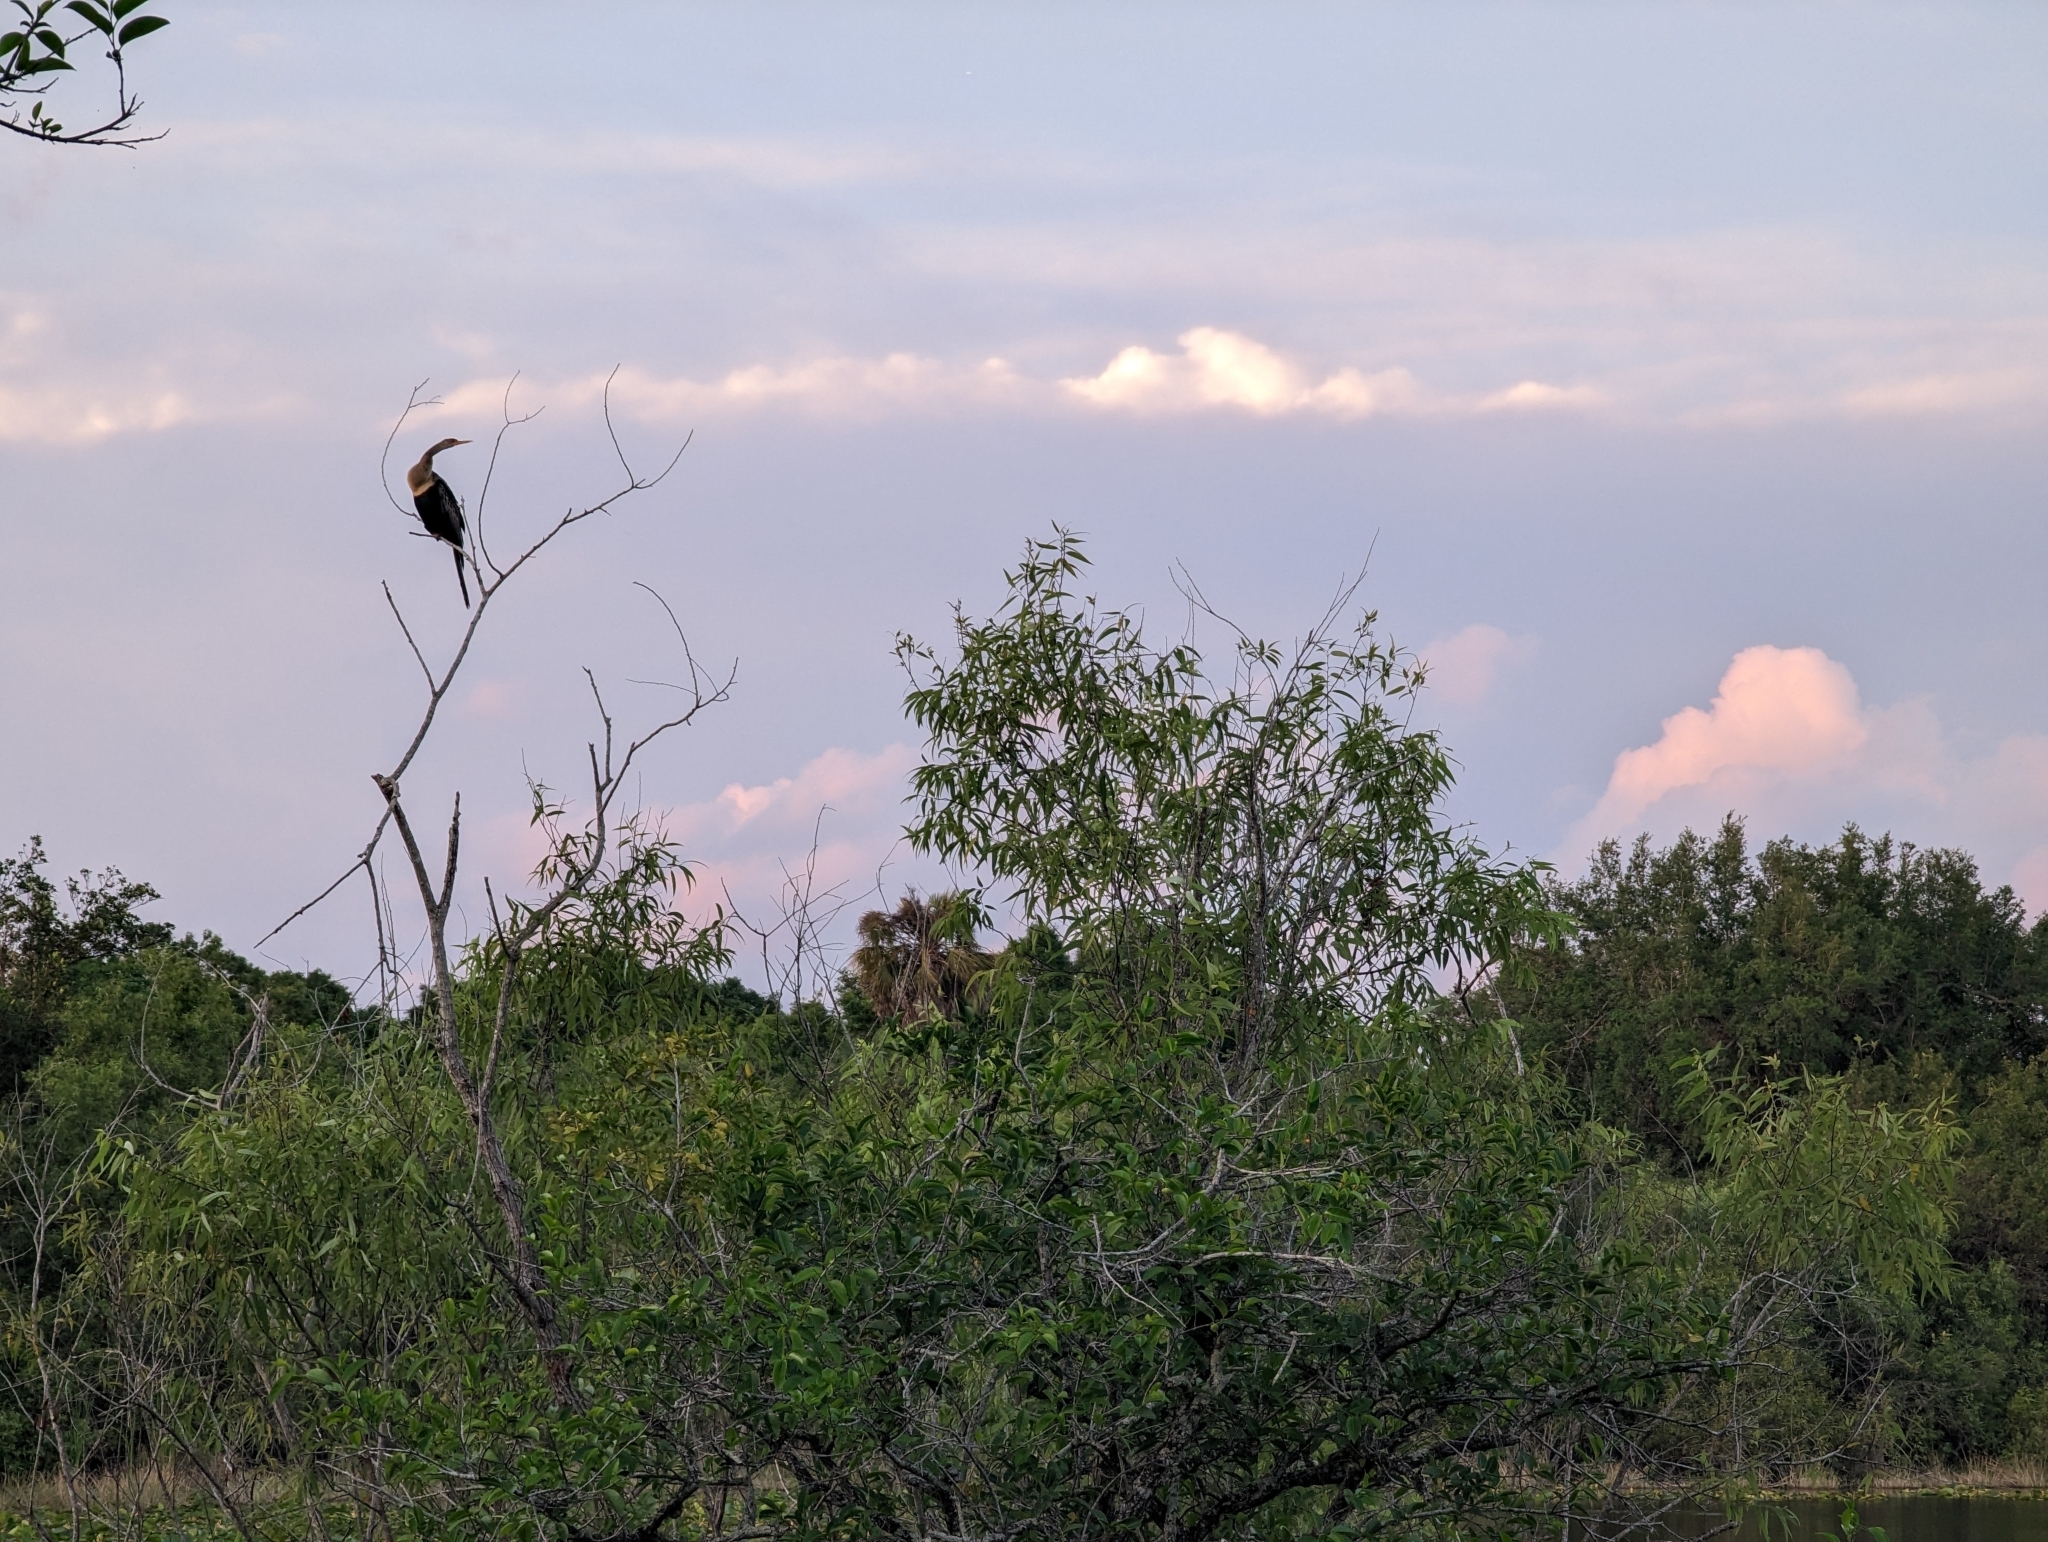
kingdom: Animalia
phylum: Chordata
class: Aves
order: Suliformes
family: Anhingidae
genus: Anhinga
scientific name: Anhinga anhinga
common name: Anhinga
